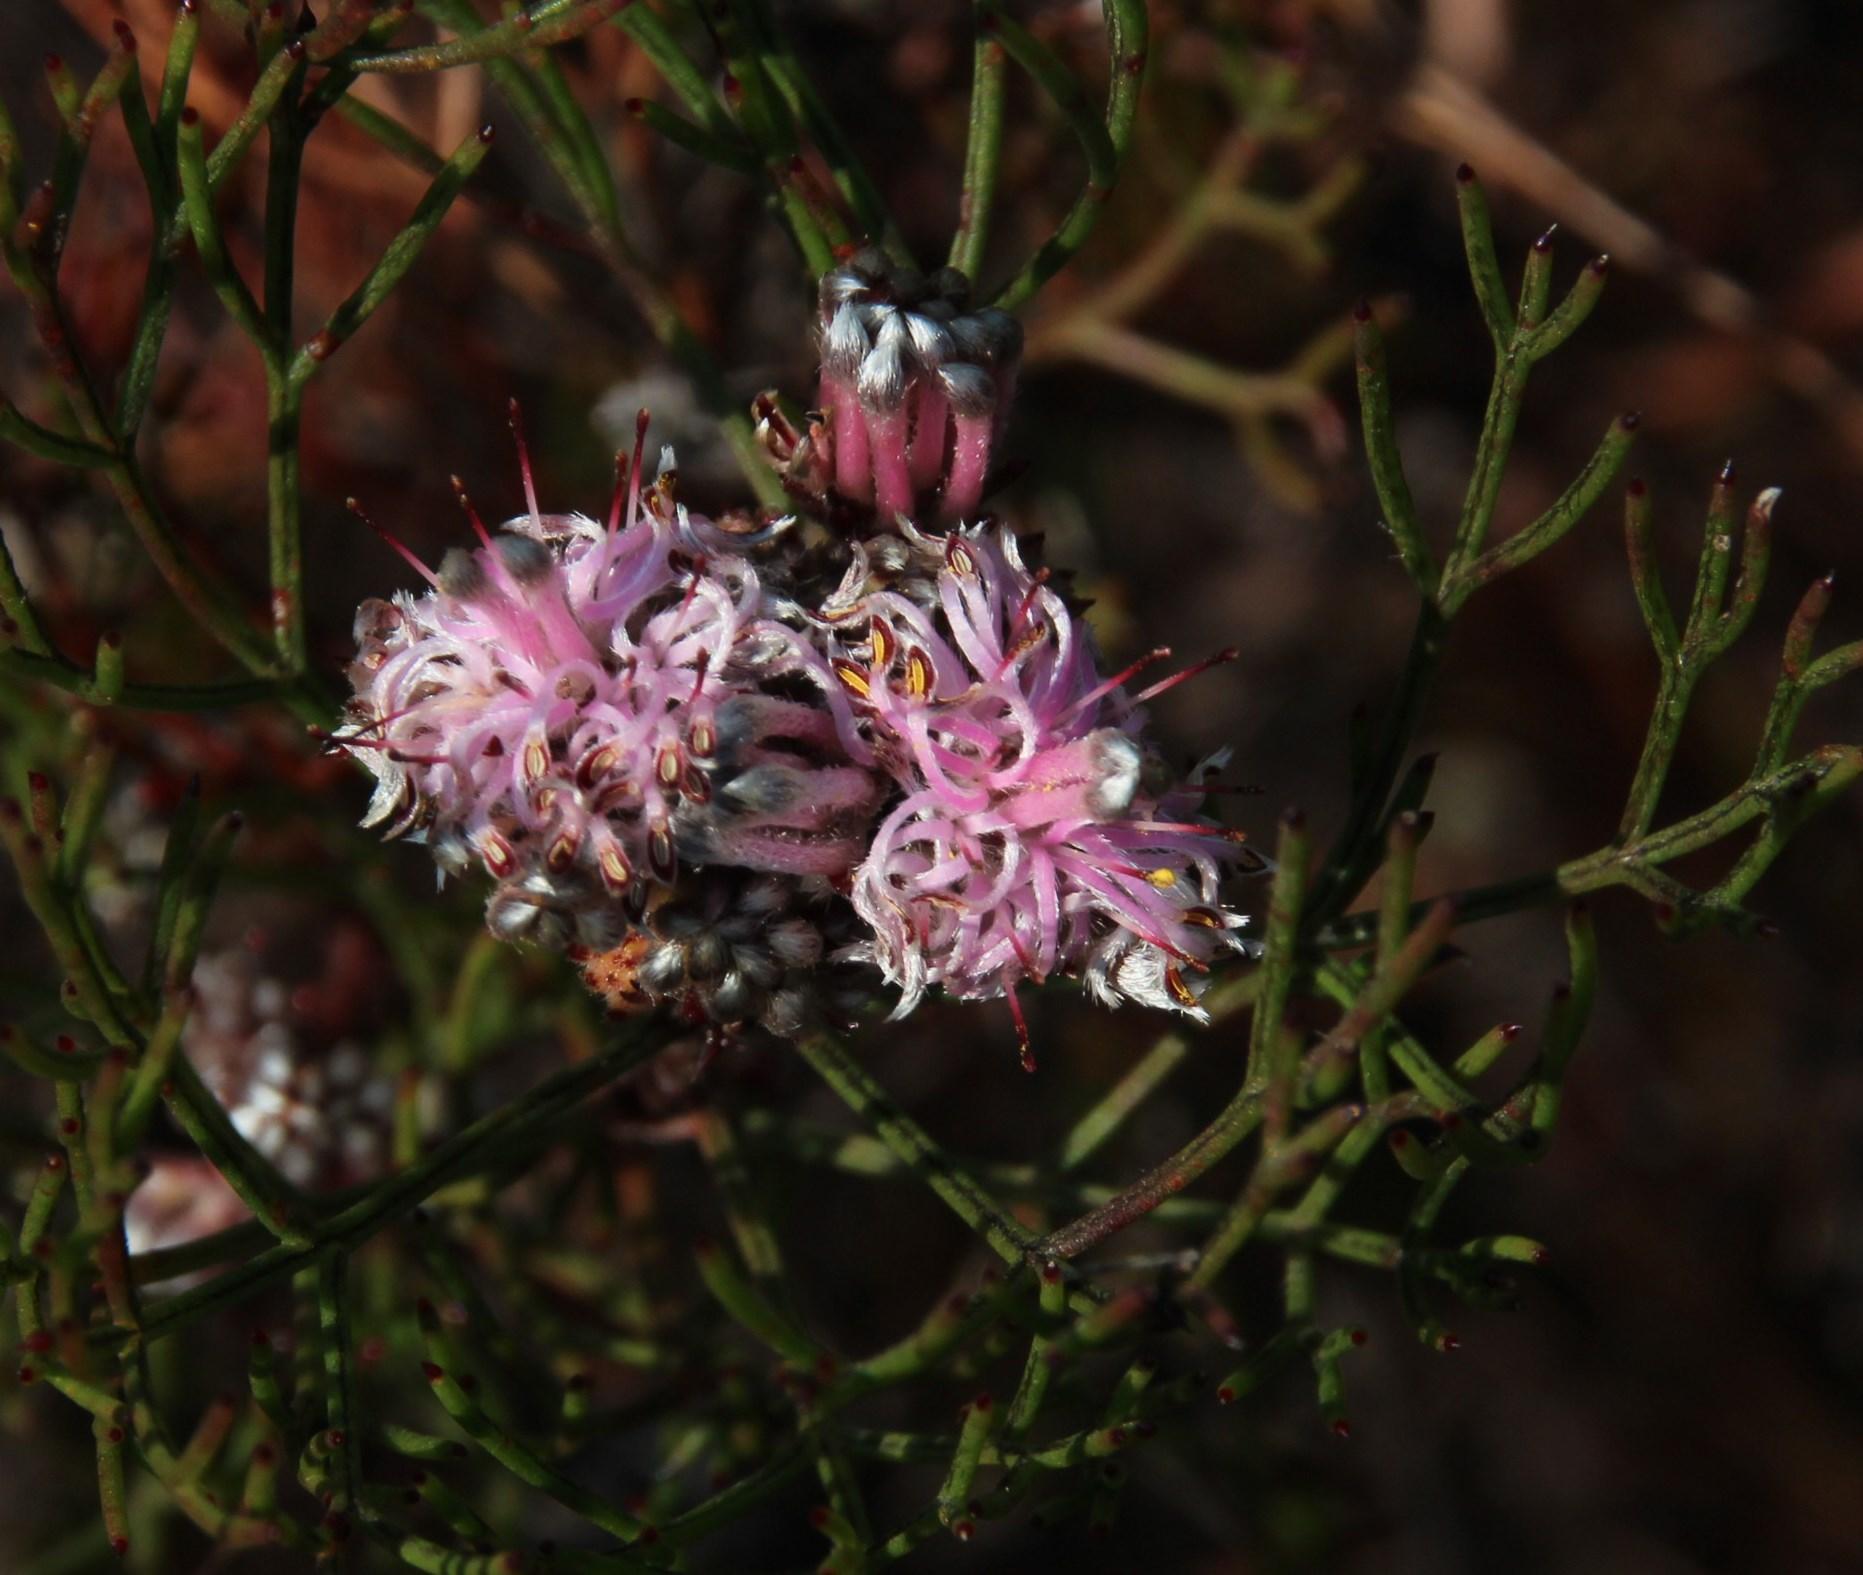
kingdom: Plantae
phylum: Tracheophyta
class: Magnoliopsida
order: Proteales
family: Proteaceae
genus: Serruria
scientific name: Serruria fasciflora
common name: Common pin spiderhead
